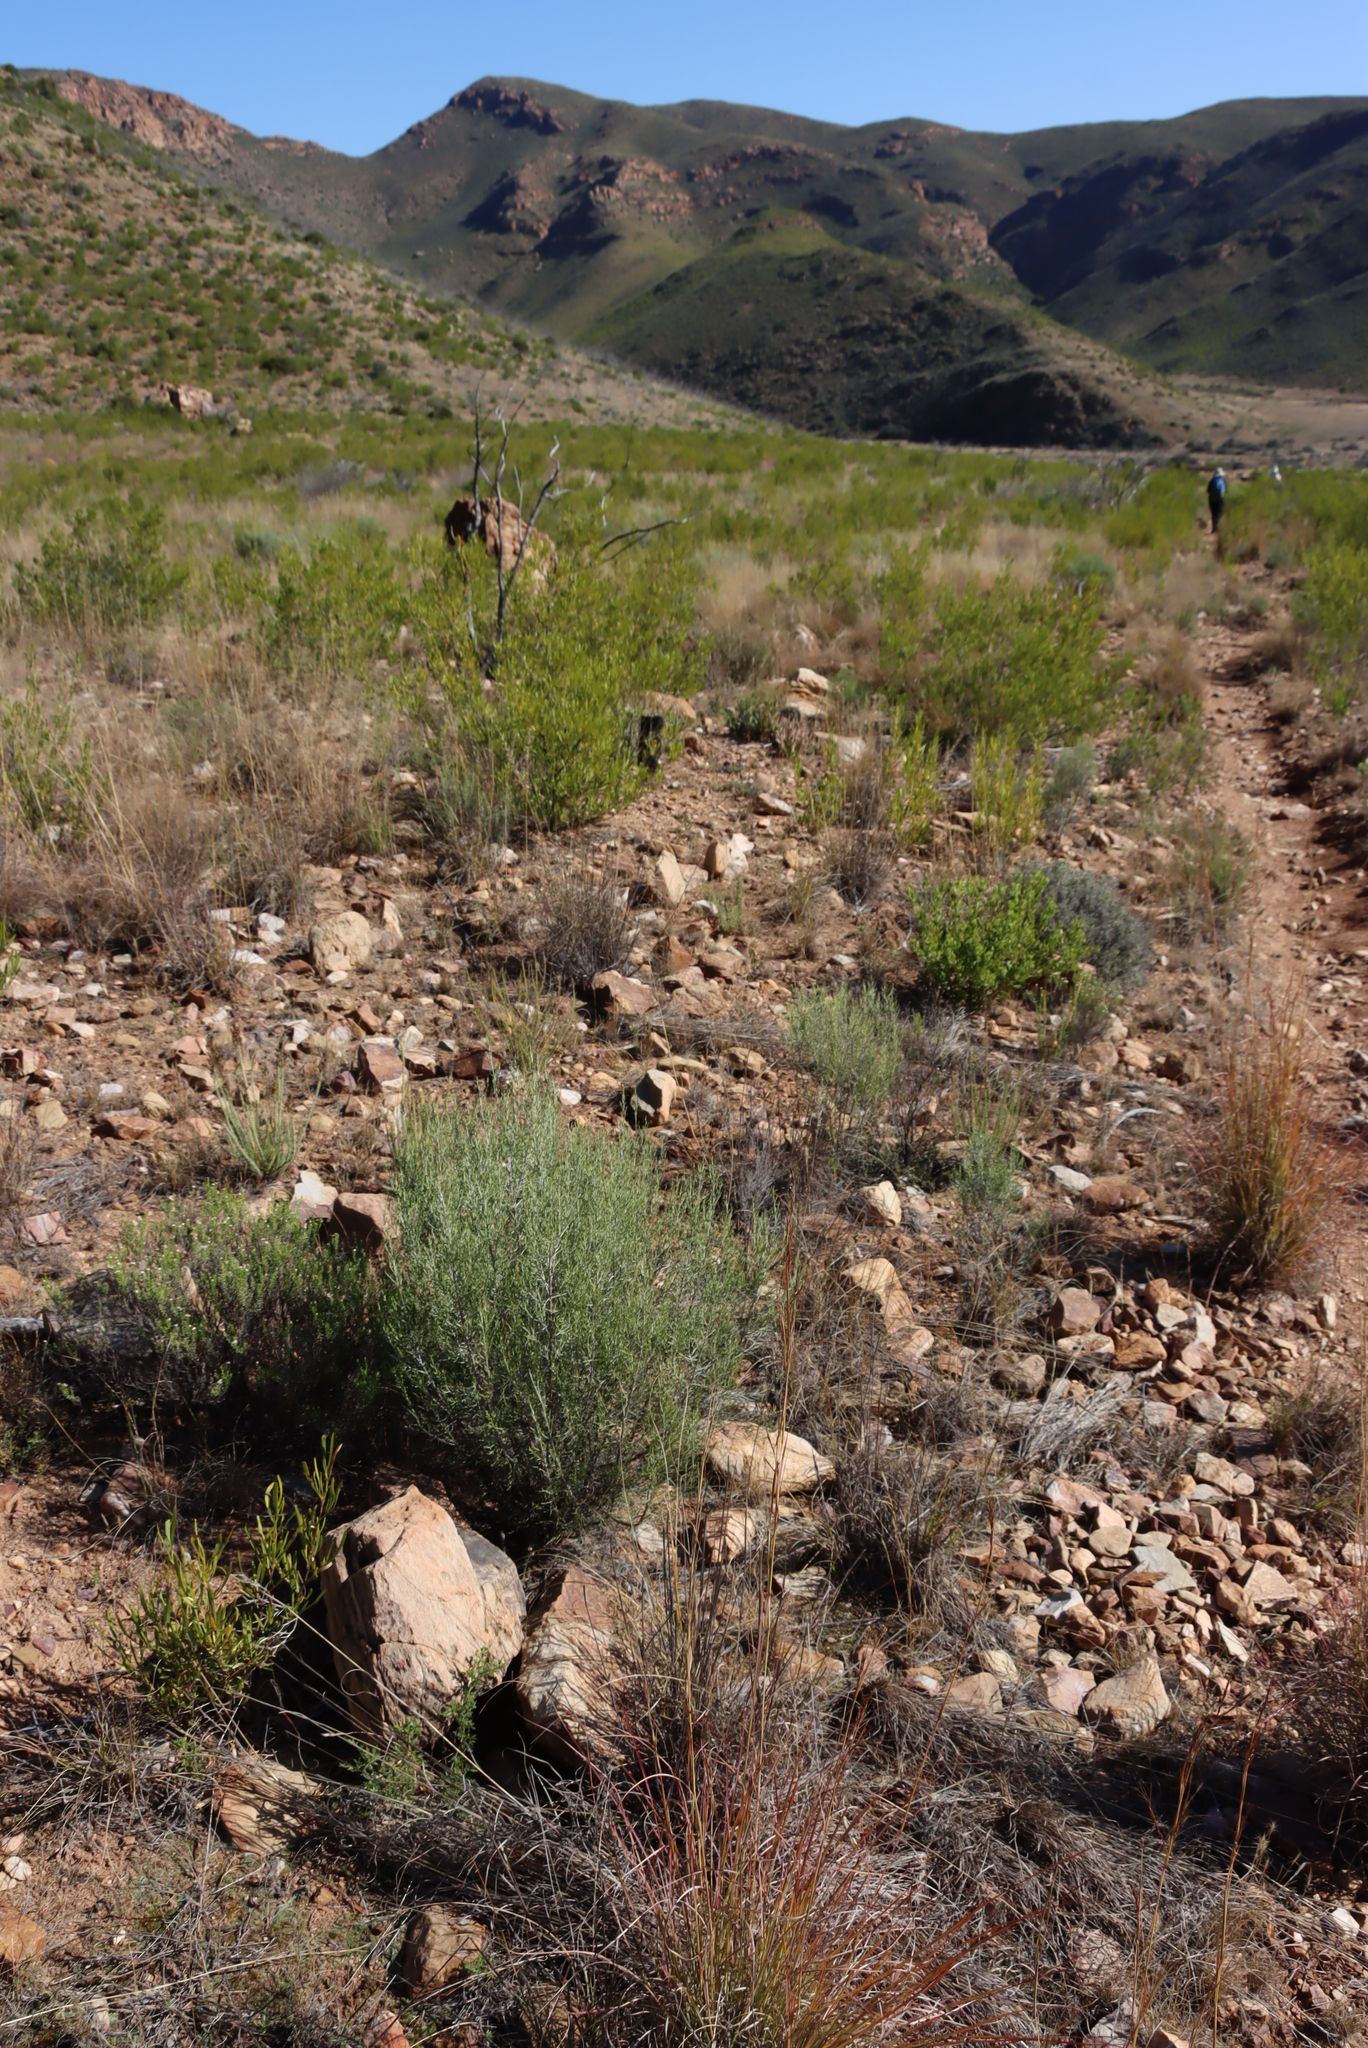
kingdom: Plantae
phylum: Tracheophyta
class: Magnoliopsida
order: Asterales
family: Asteraceae
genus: Dicerothamnus
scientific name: Dicerothamnus rhinocerotis
